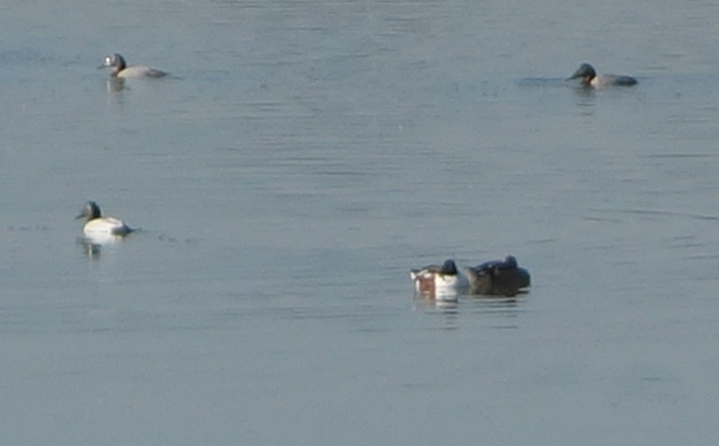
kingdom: Animalia
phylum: Chordata
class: Aves
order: Anseriformes
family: Anatidae
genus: Spatula
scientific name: Spatula clypeata
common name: Northern shoveler
